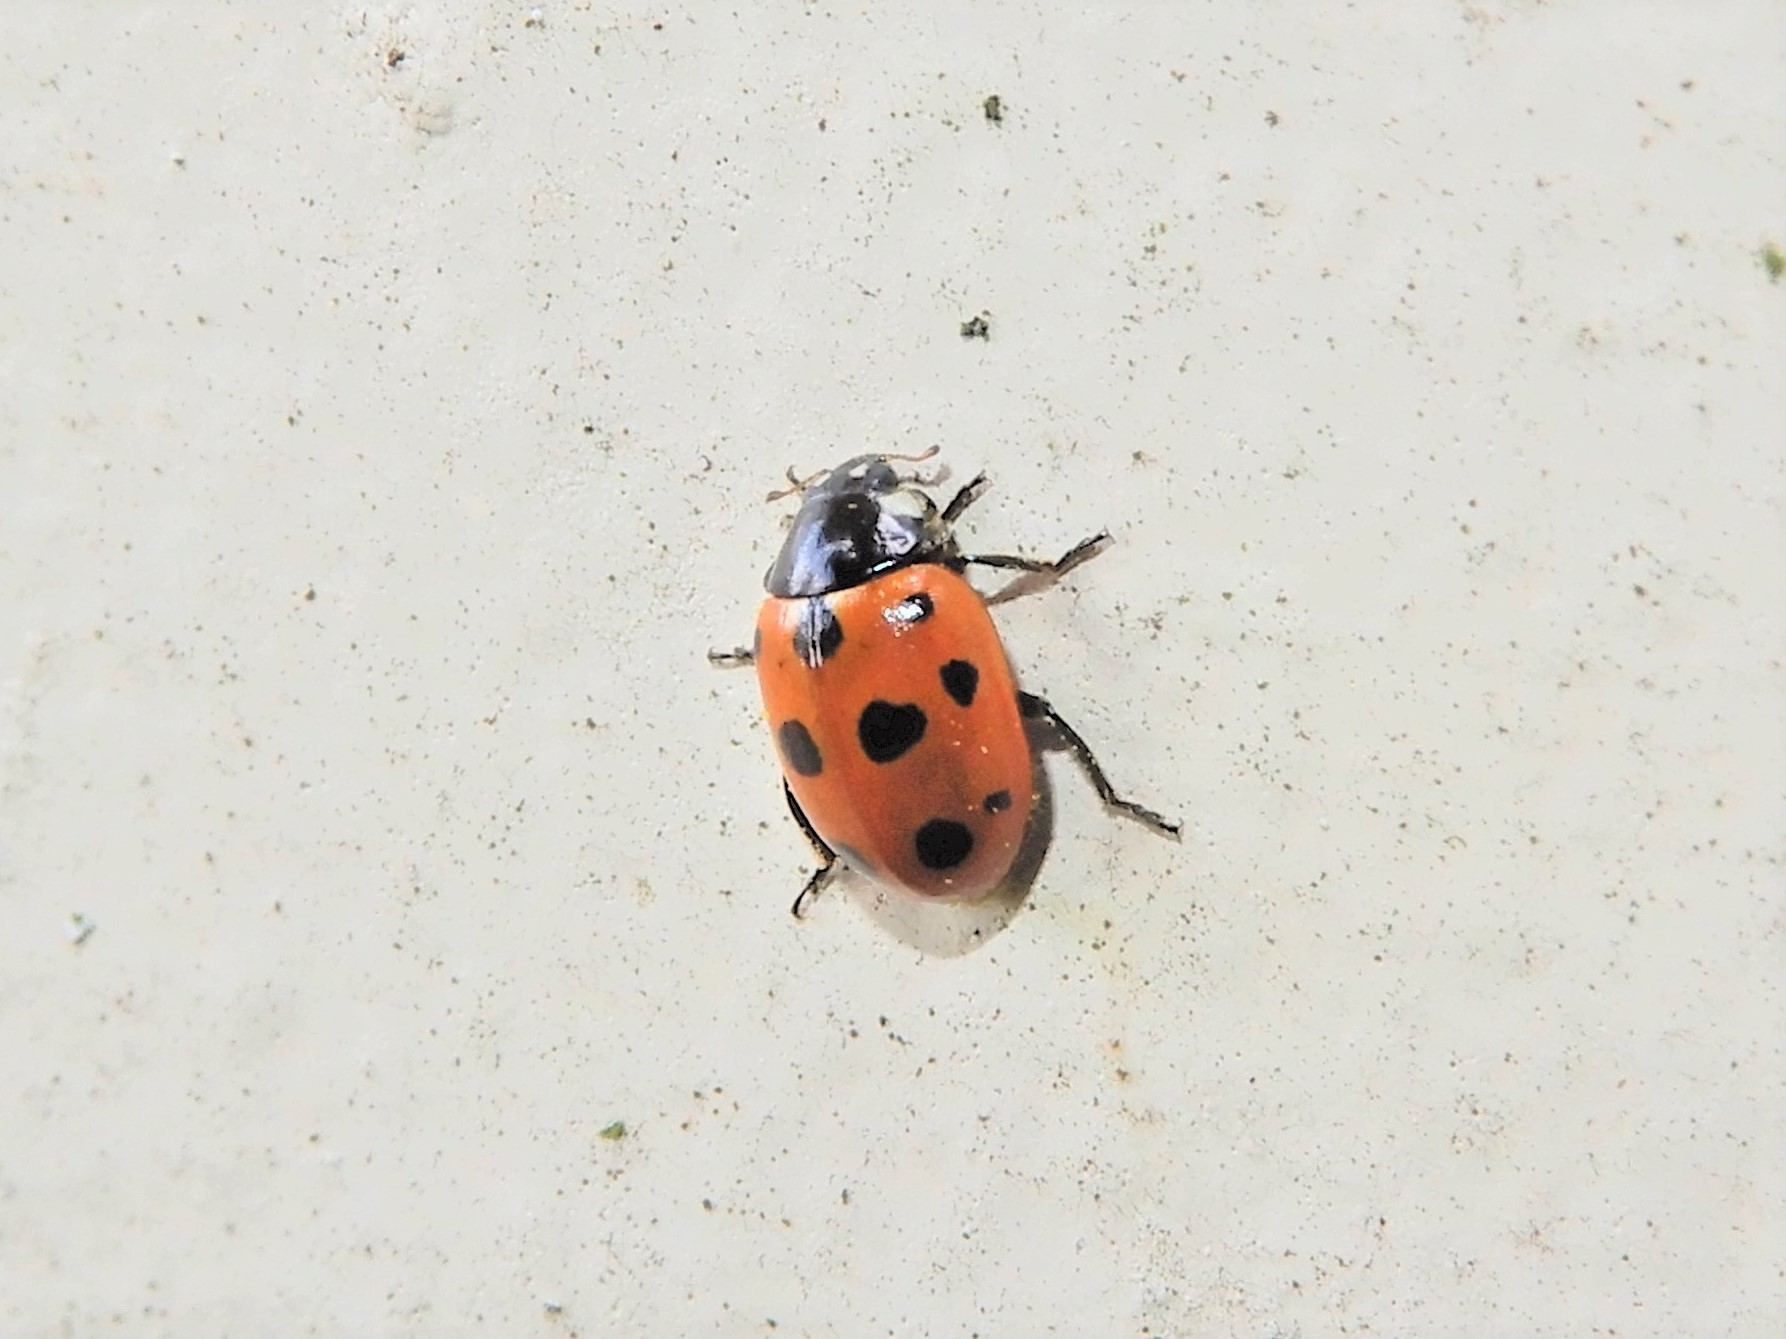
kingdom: Animalia
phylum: Arthropoda
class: Insecta
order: Coleoptera
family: Coccinellidae
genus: Coccinella
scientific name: Coccinella undecimpunctata
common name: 11-spot ladybird
